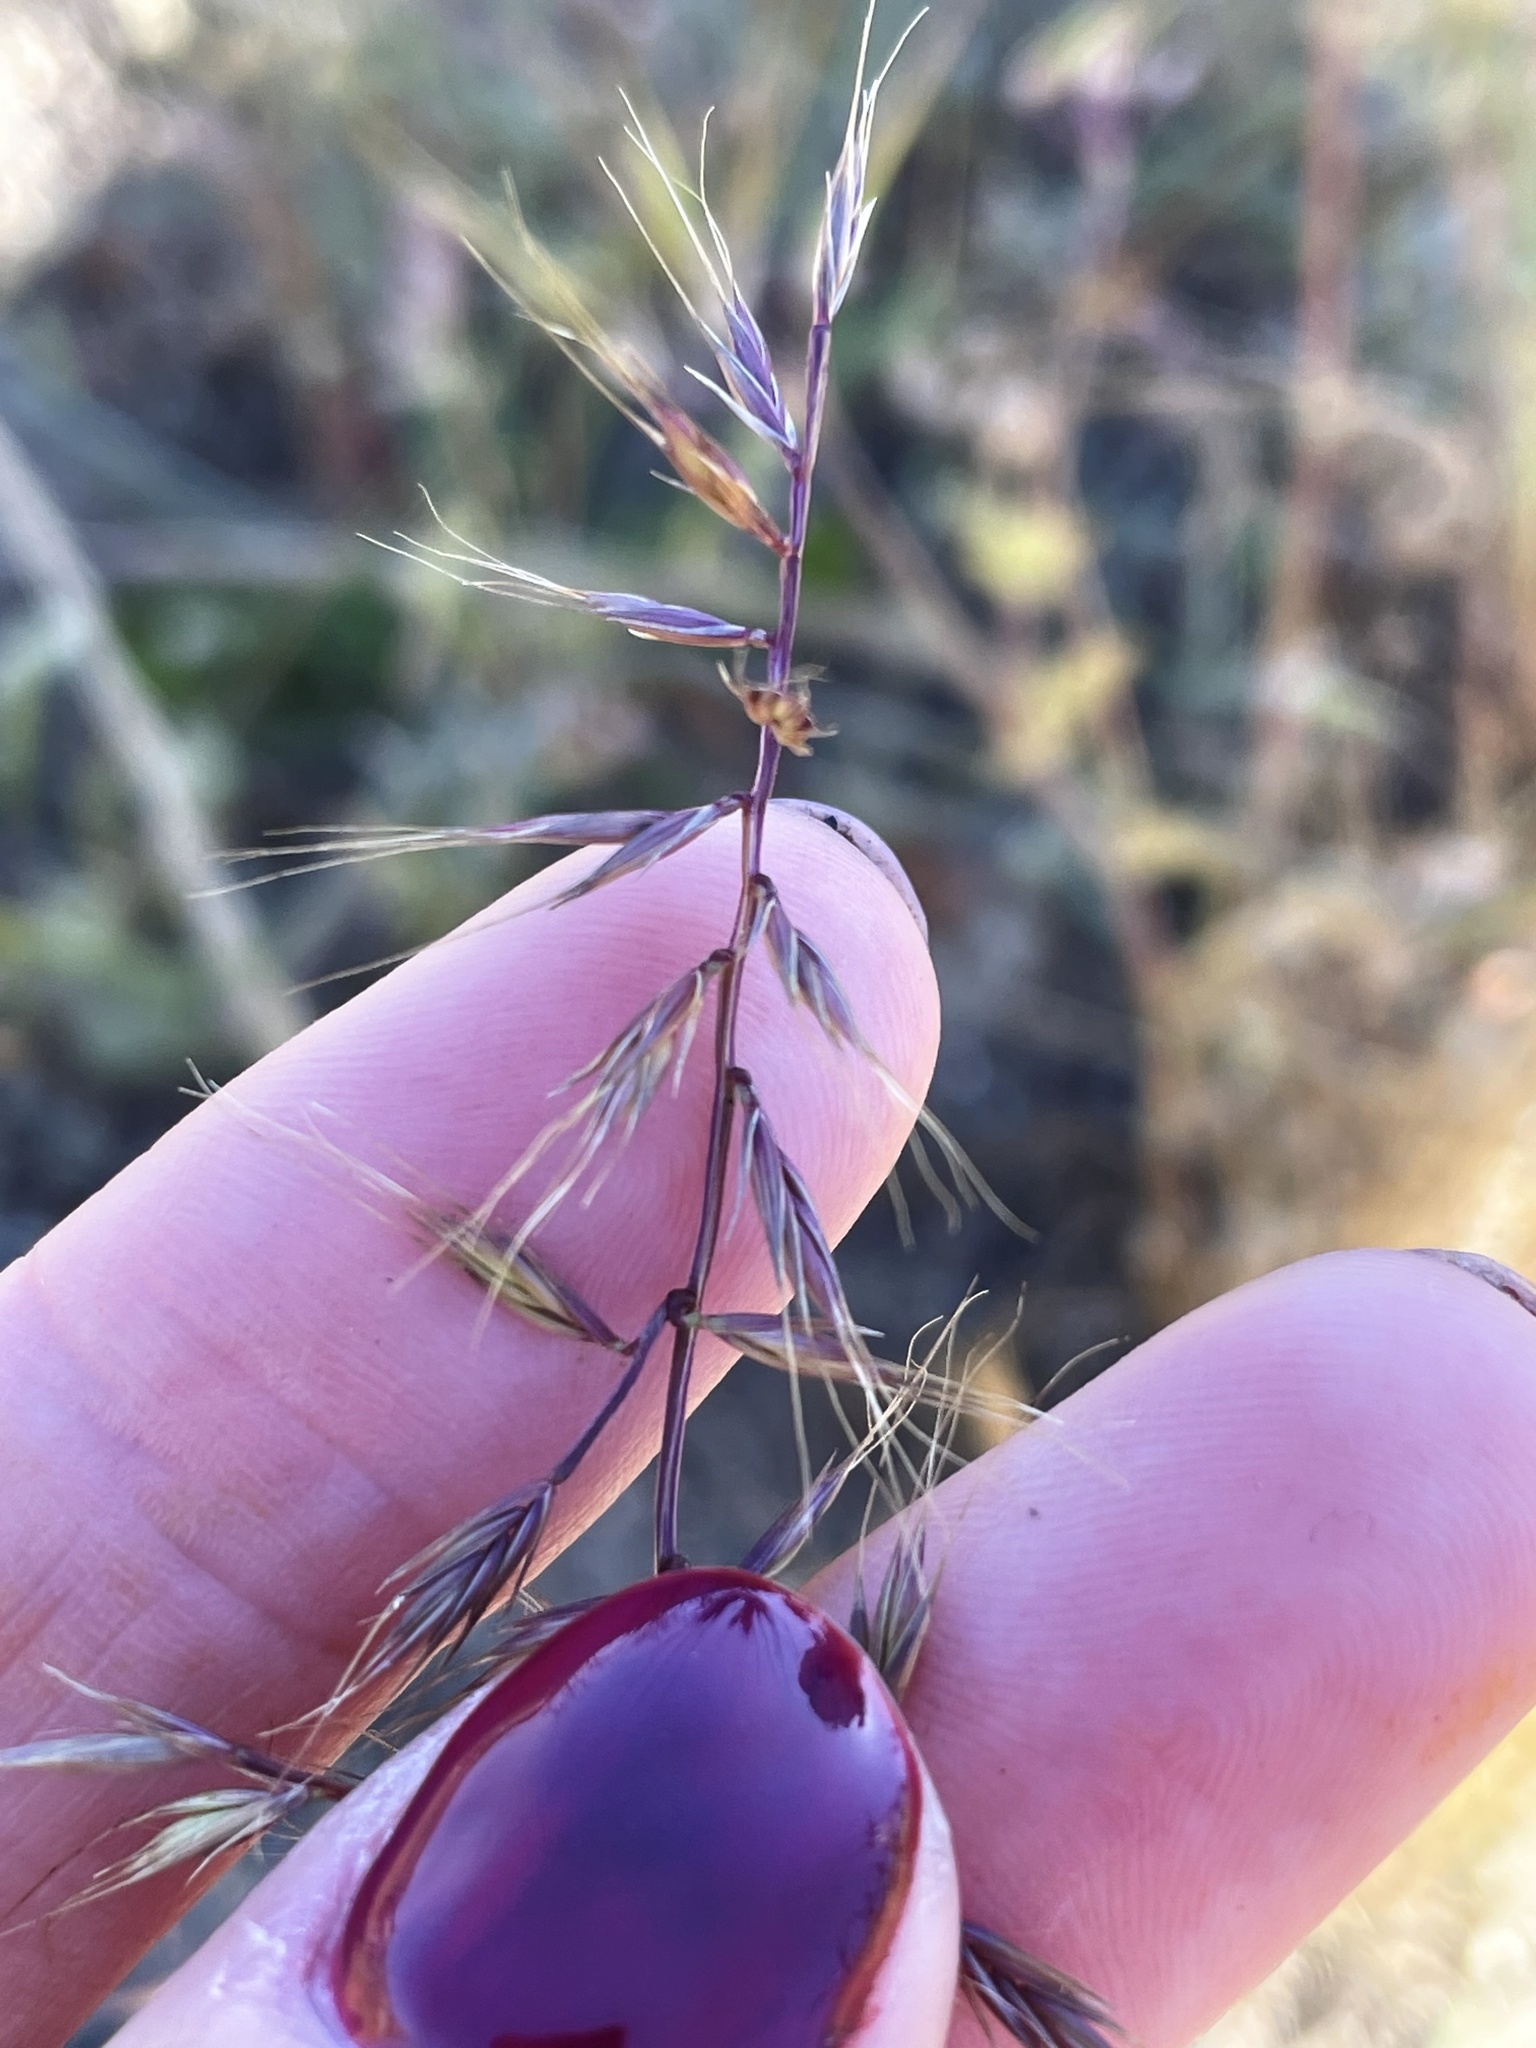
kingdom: Plantae
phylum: Tracheophyta
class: Liliopsida
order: Poales
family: Poaceae
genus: Festuca
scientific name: Festuca microstachys
